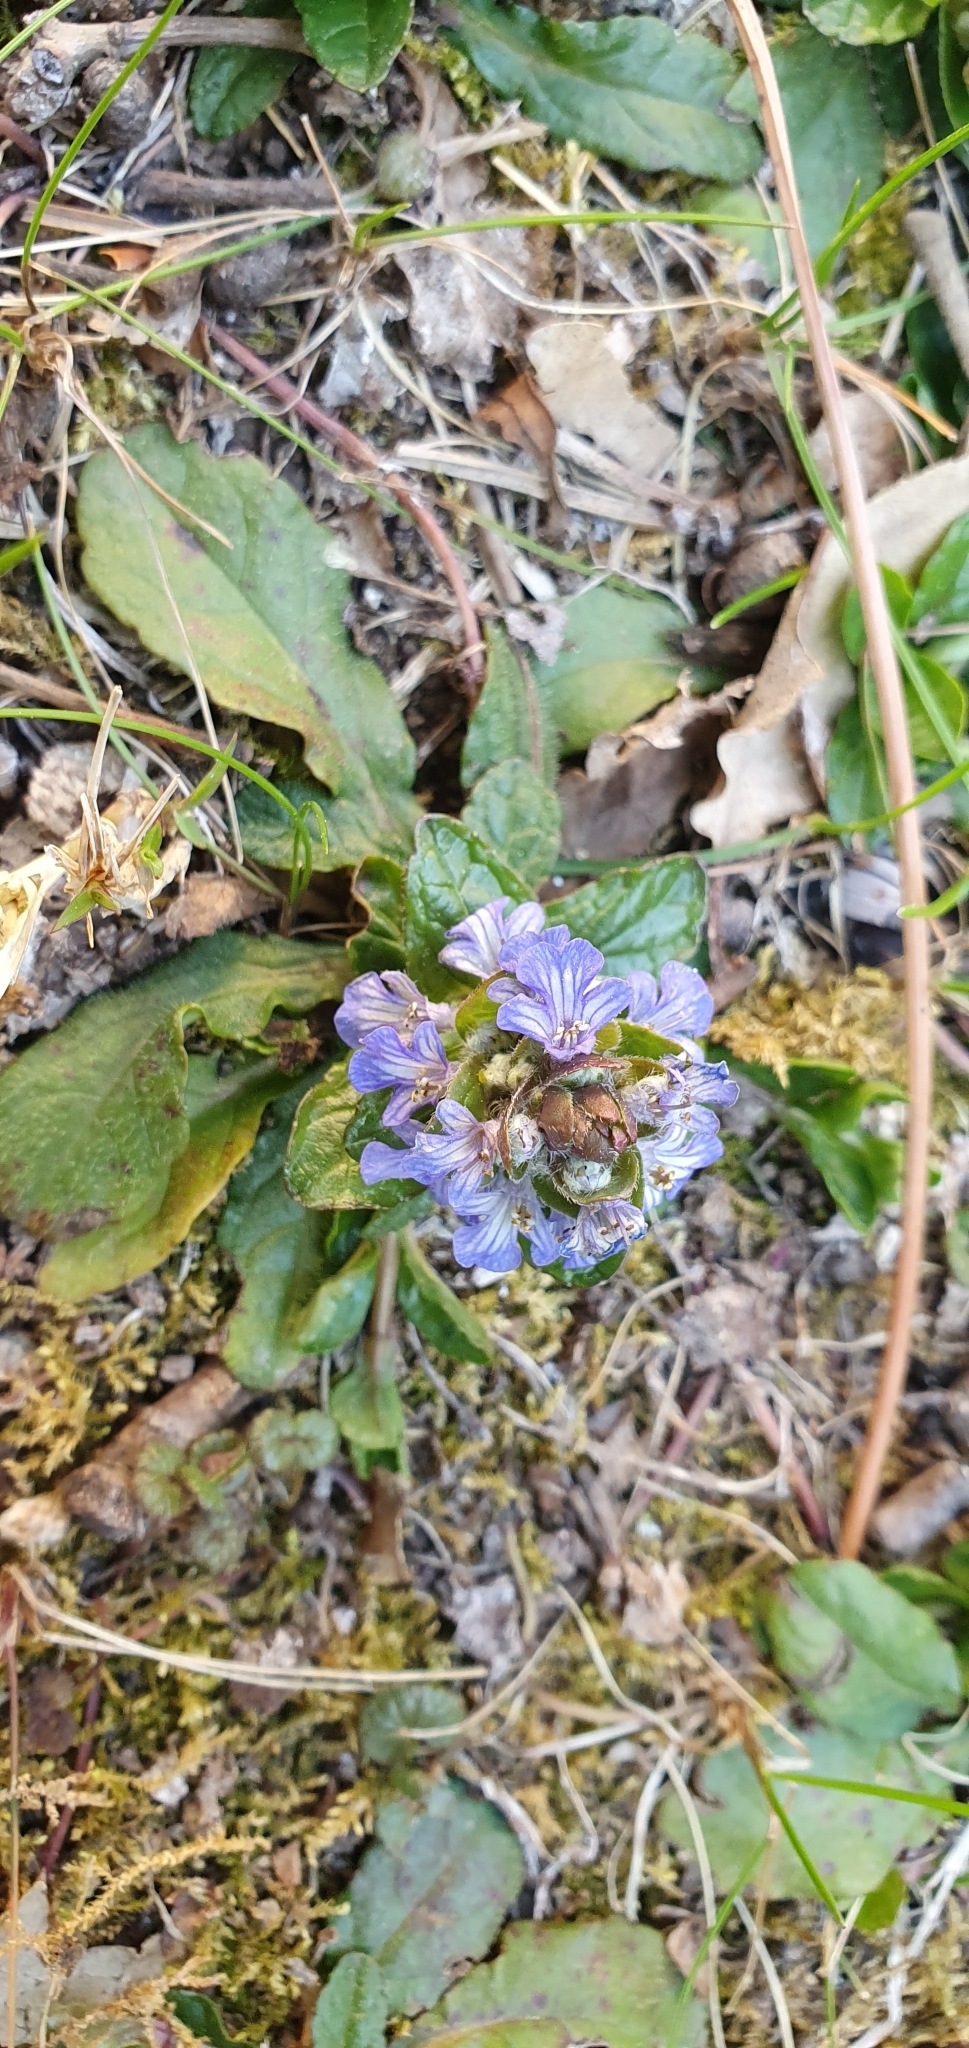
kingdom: Plantae
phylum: Tracheophyta
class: Magnoliopsida
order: Lamiales
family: Lamiaceae
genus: Ajuga
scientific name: Ajuga reptans
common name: Bugle
